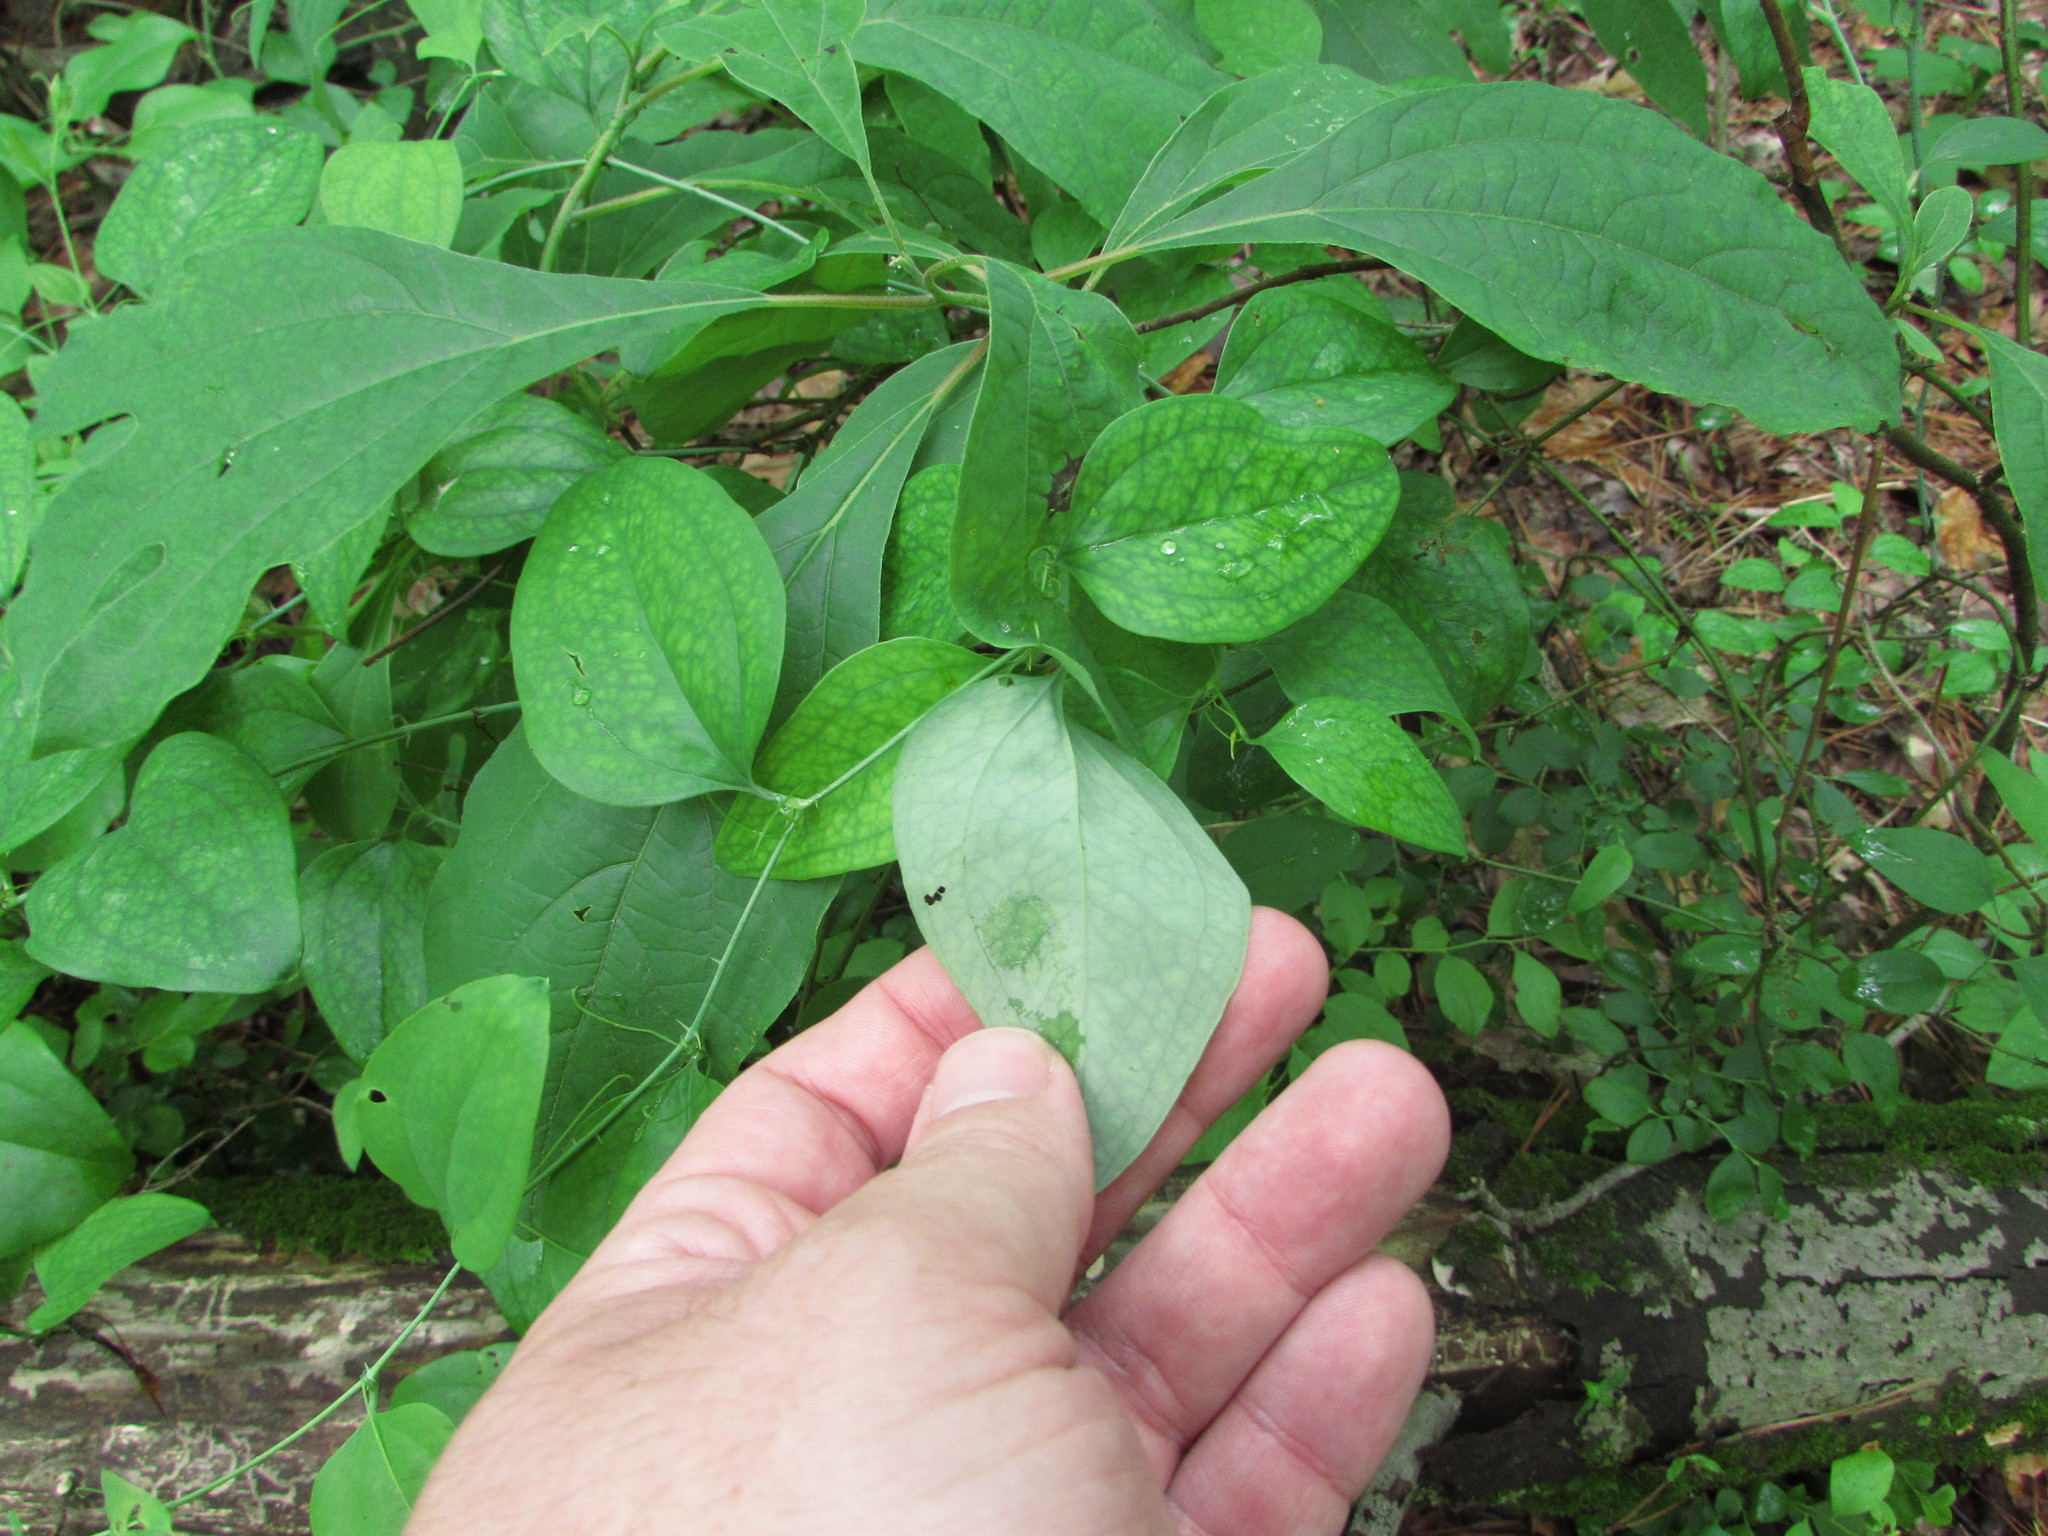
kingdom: Plantae
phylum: Tracheophyta
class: Liliopsida
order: Liliales
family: Smilacaceae
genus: Smilax
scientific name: Smilax glauca
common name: Cat greenbrier
